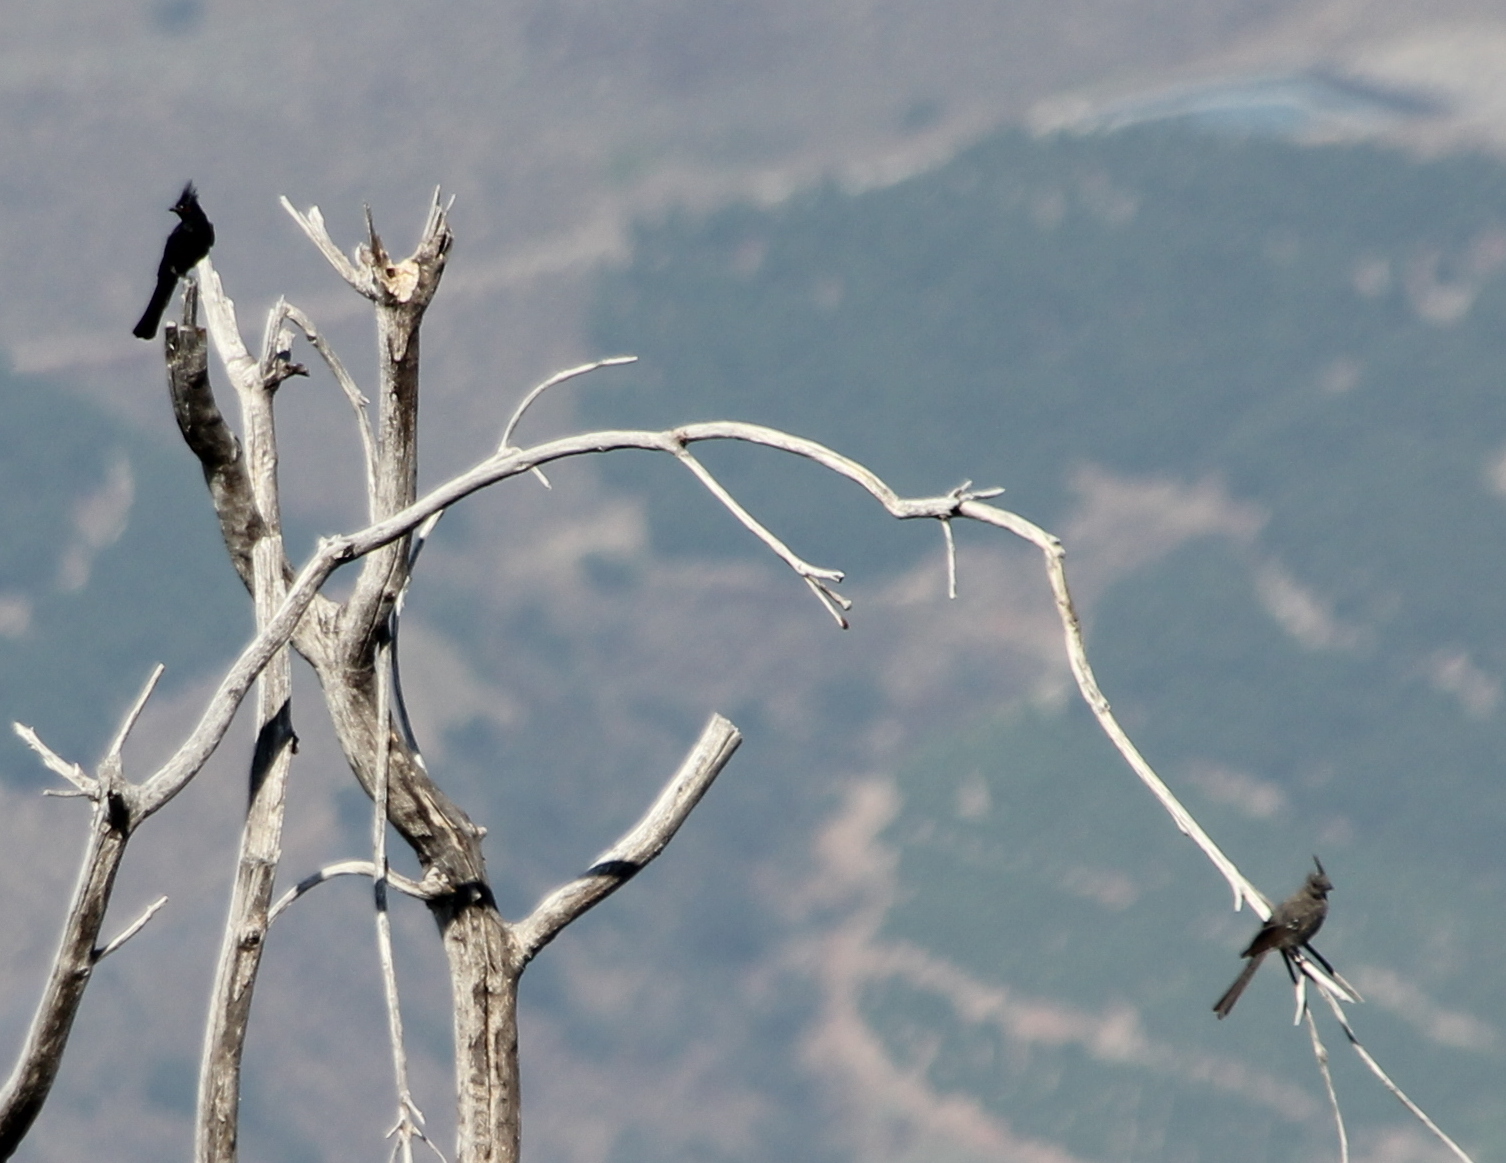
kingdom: Animalia
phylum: Chordata
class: Aves
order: Passeriformes
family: Ptilogonatidae
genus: Phainopepla
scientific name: Phainopepla nitens
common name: Phainopepla
